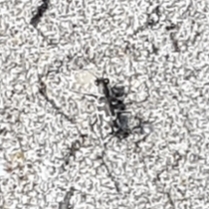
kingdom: Animalia
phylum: Arthropoda
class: Insecta
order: Coleoptera
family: Carabidae
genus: Cylindera
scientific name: Cylindera trisignata
